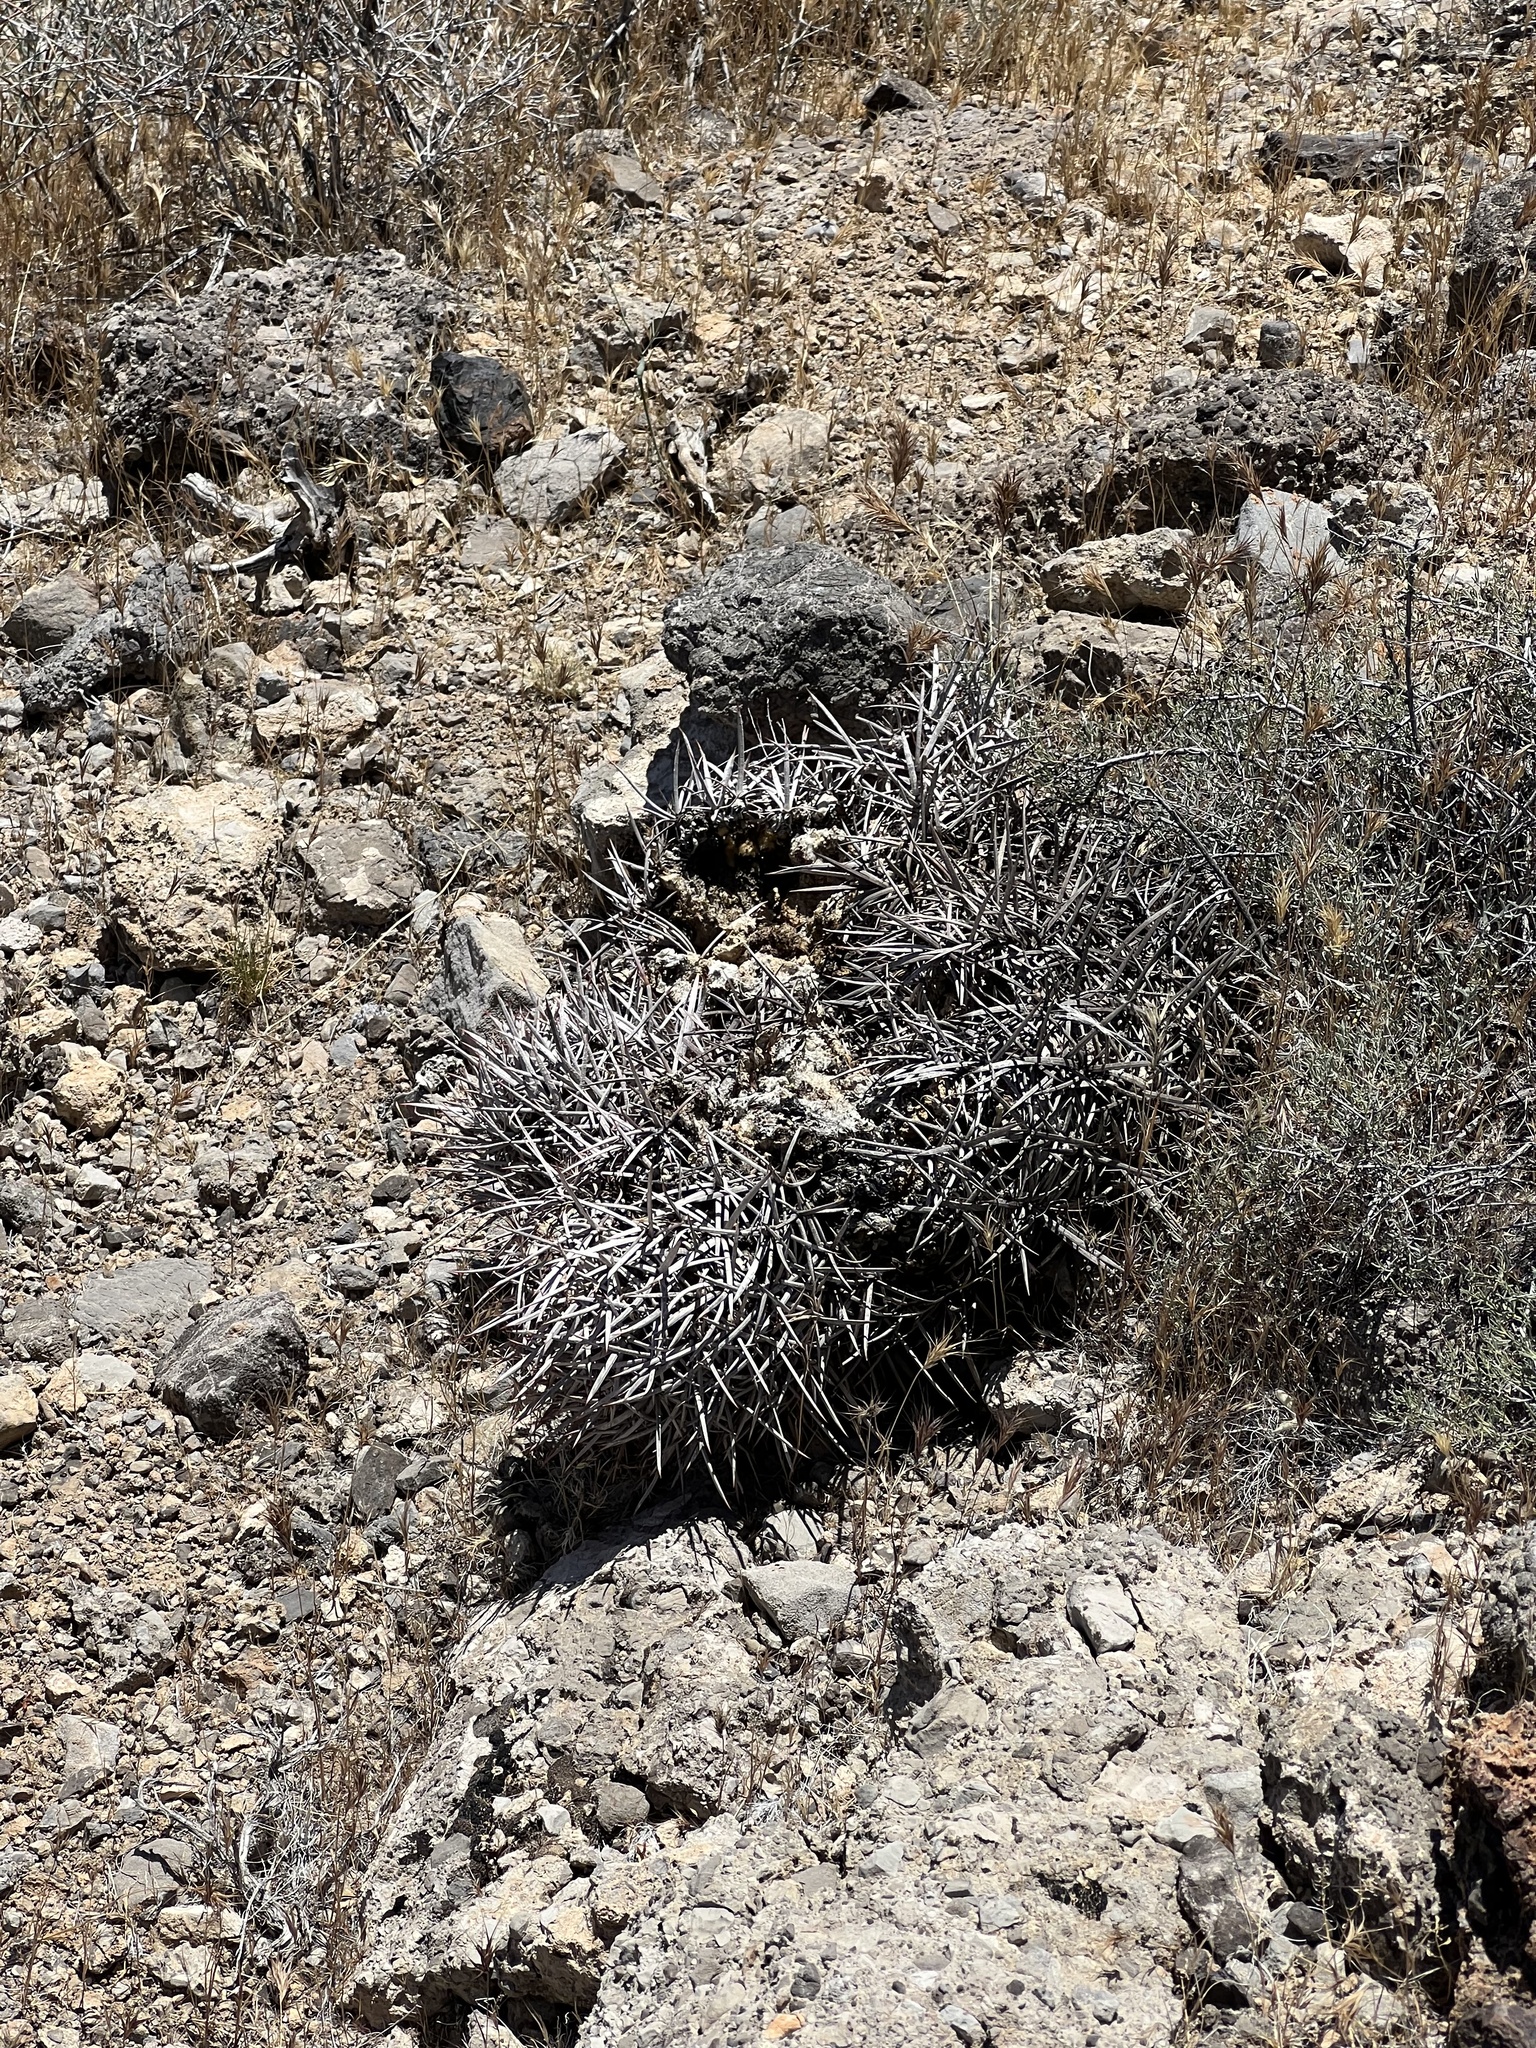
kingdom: Plantae
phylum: Tracheophyta
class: Magnoliopsida
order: Caryophyllales
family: Cactaceae
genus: Echinocactus
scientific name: Echinocactus polycephalus
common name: Cottontop cactus
